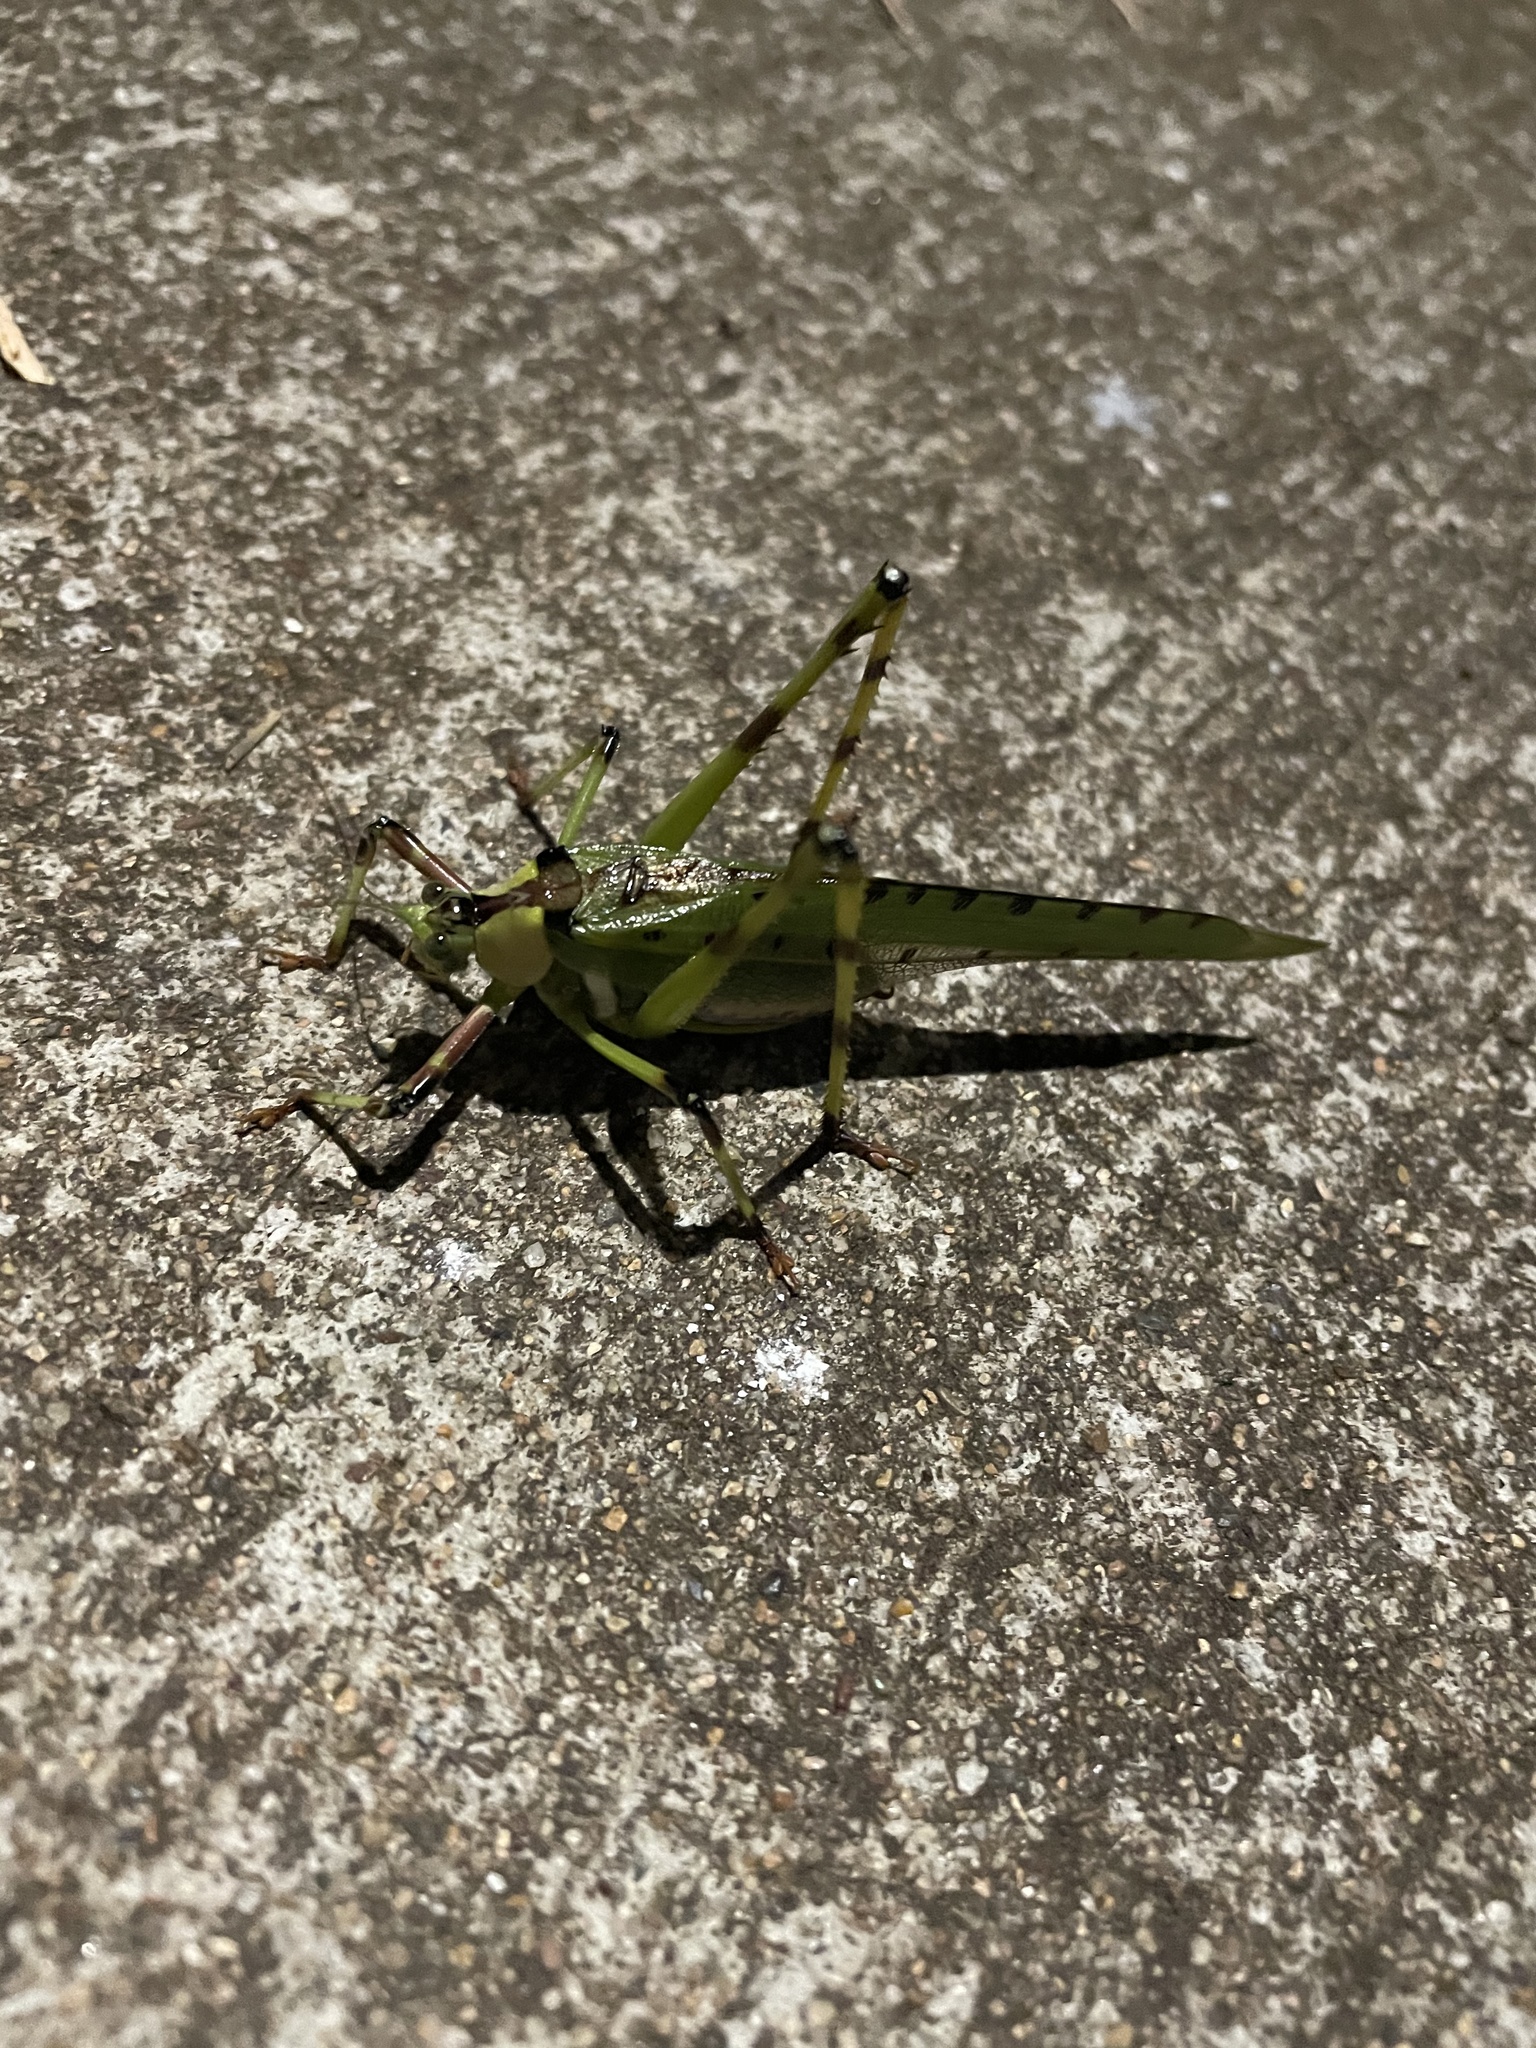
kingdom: Animalia
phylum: Arthropoda
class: Insecta
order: Orthoptera
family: Tettigoniidae
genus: Ephippitytha
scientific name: Ephippitytha trigintiduoguttata
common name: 32-spotted katydid
